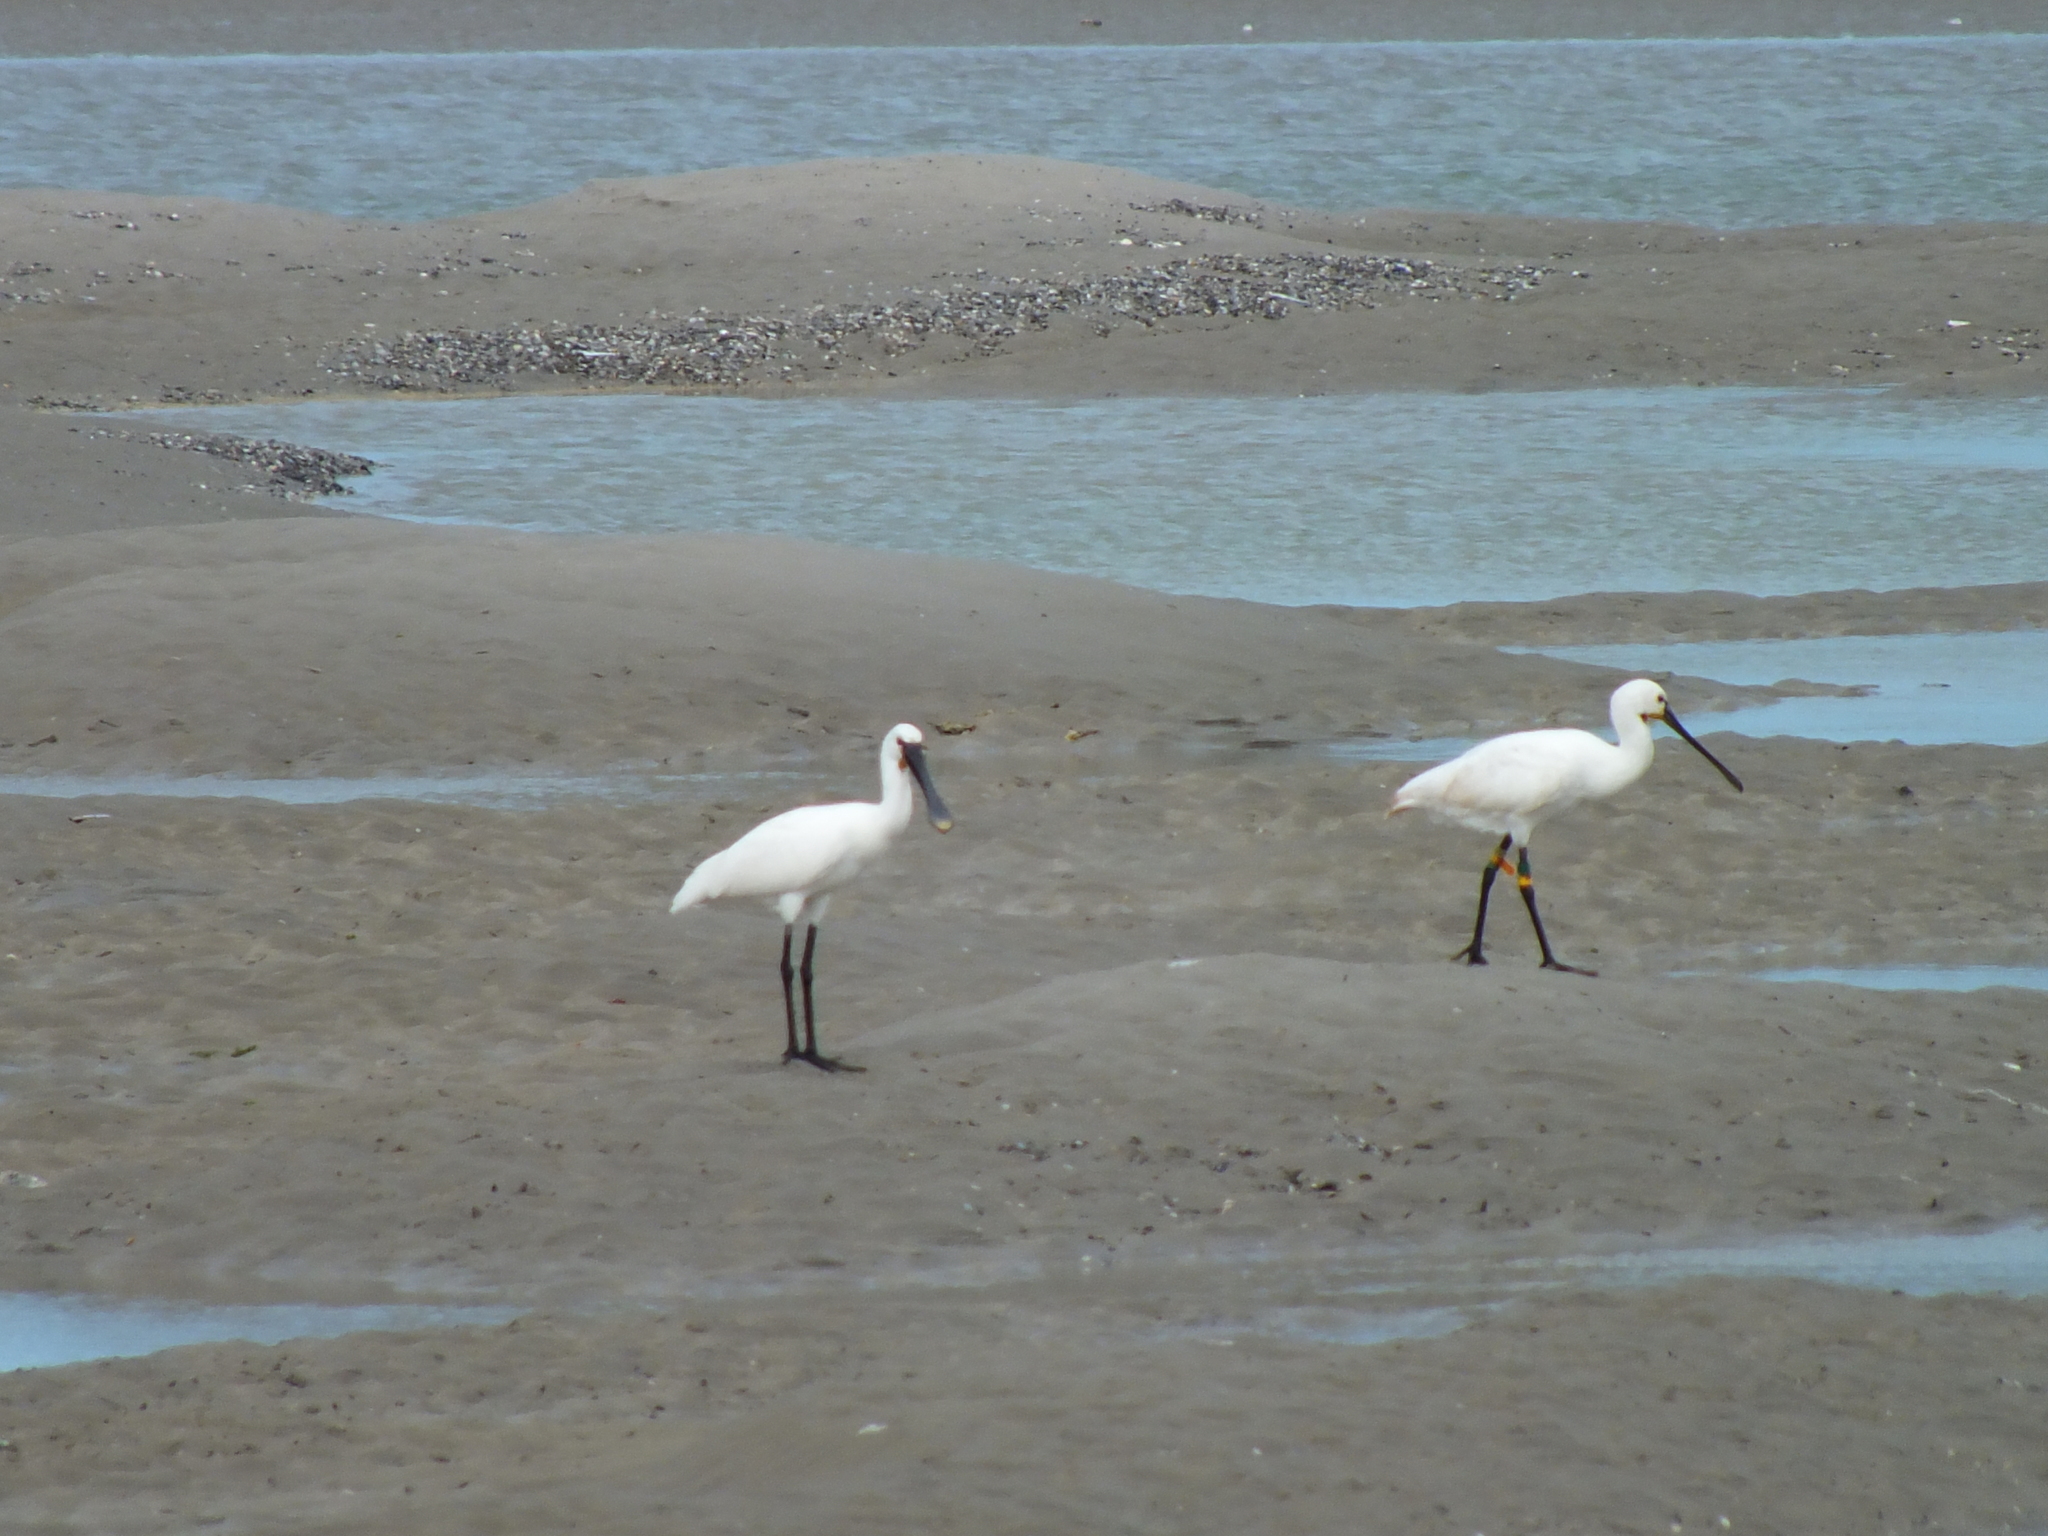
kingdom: Animalia
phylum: Chordata
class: Aves
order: Pelecaniformes
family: Threskiornithidae
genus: Platalea
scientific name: Platalea leucorodia
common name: Eurasian spoonbill
